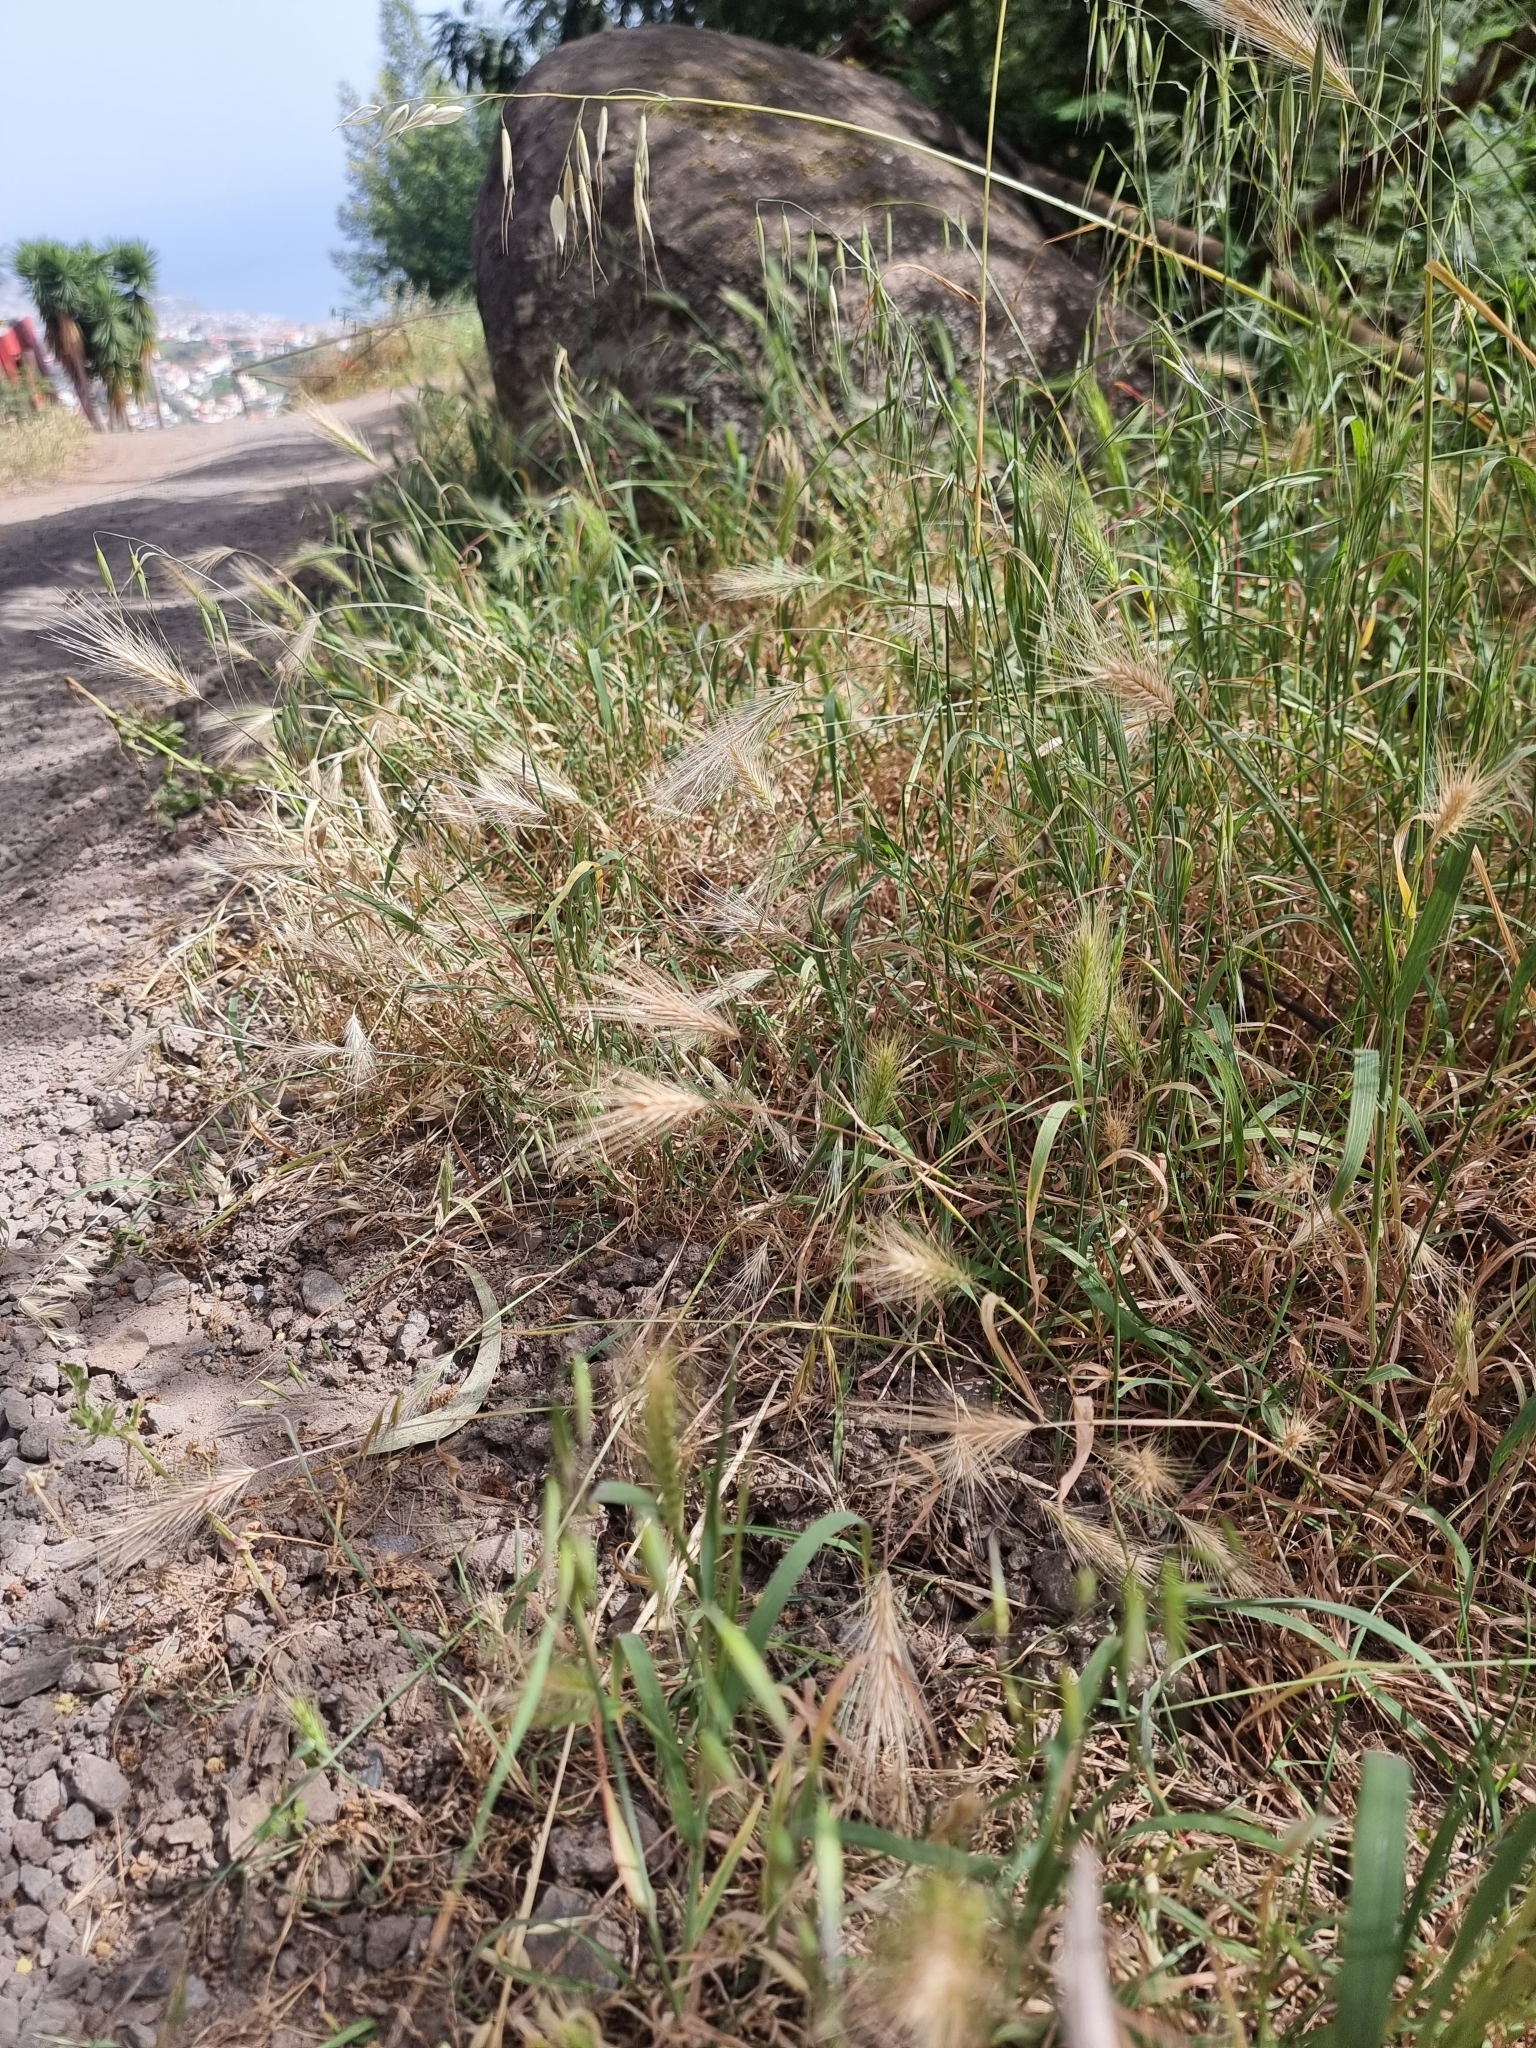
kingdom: Plantae
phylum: Tracheophyta
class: Liliopsida
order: Poales
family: Poaceae
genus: Hordeum
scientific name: Hordeum murinum
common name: Wall barley
